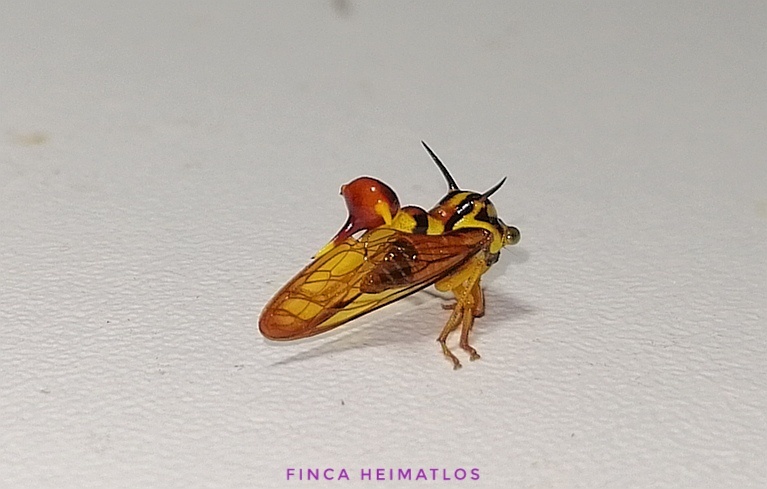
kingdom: Animalia
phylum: Arthropoda
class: Insecta
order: Hemiptera
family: Membracidae
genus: Heteronotus
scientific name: Heteronotus vespiformes
